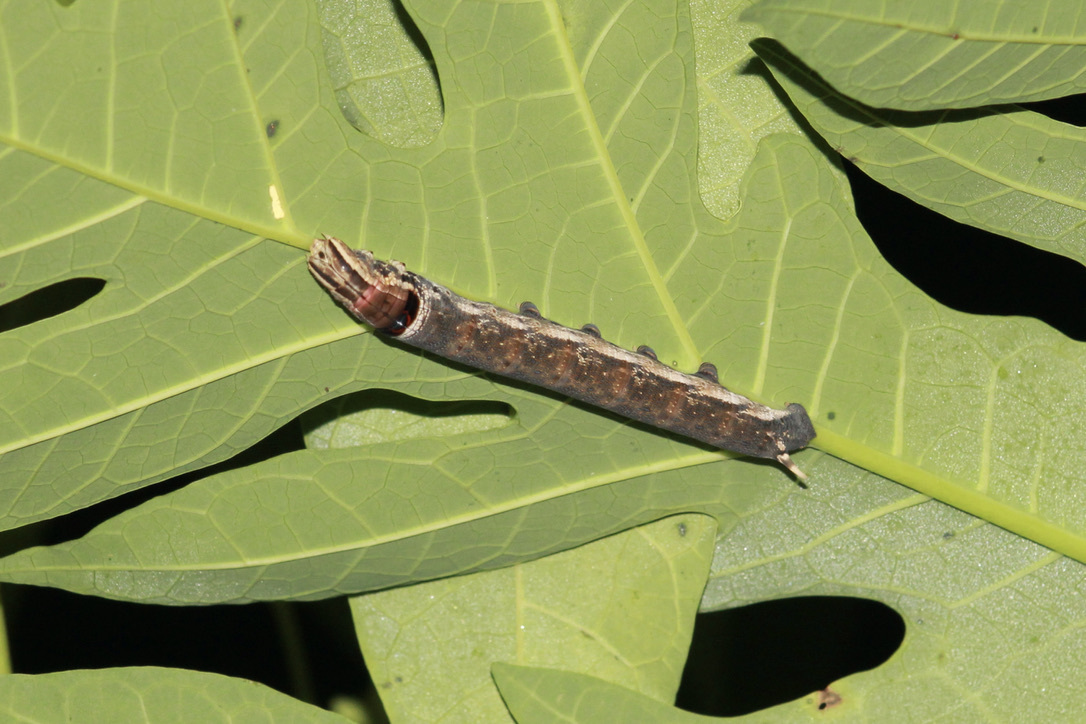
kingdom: Animalia
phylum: Arthropoda
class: Insecta
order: Lepidoptera
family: Sphingidae
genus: Erinnyis
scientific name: Erinnyis alope
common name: Alope sphinx
